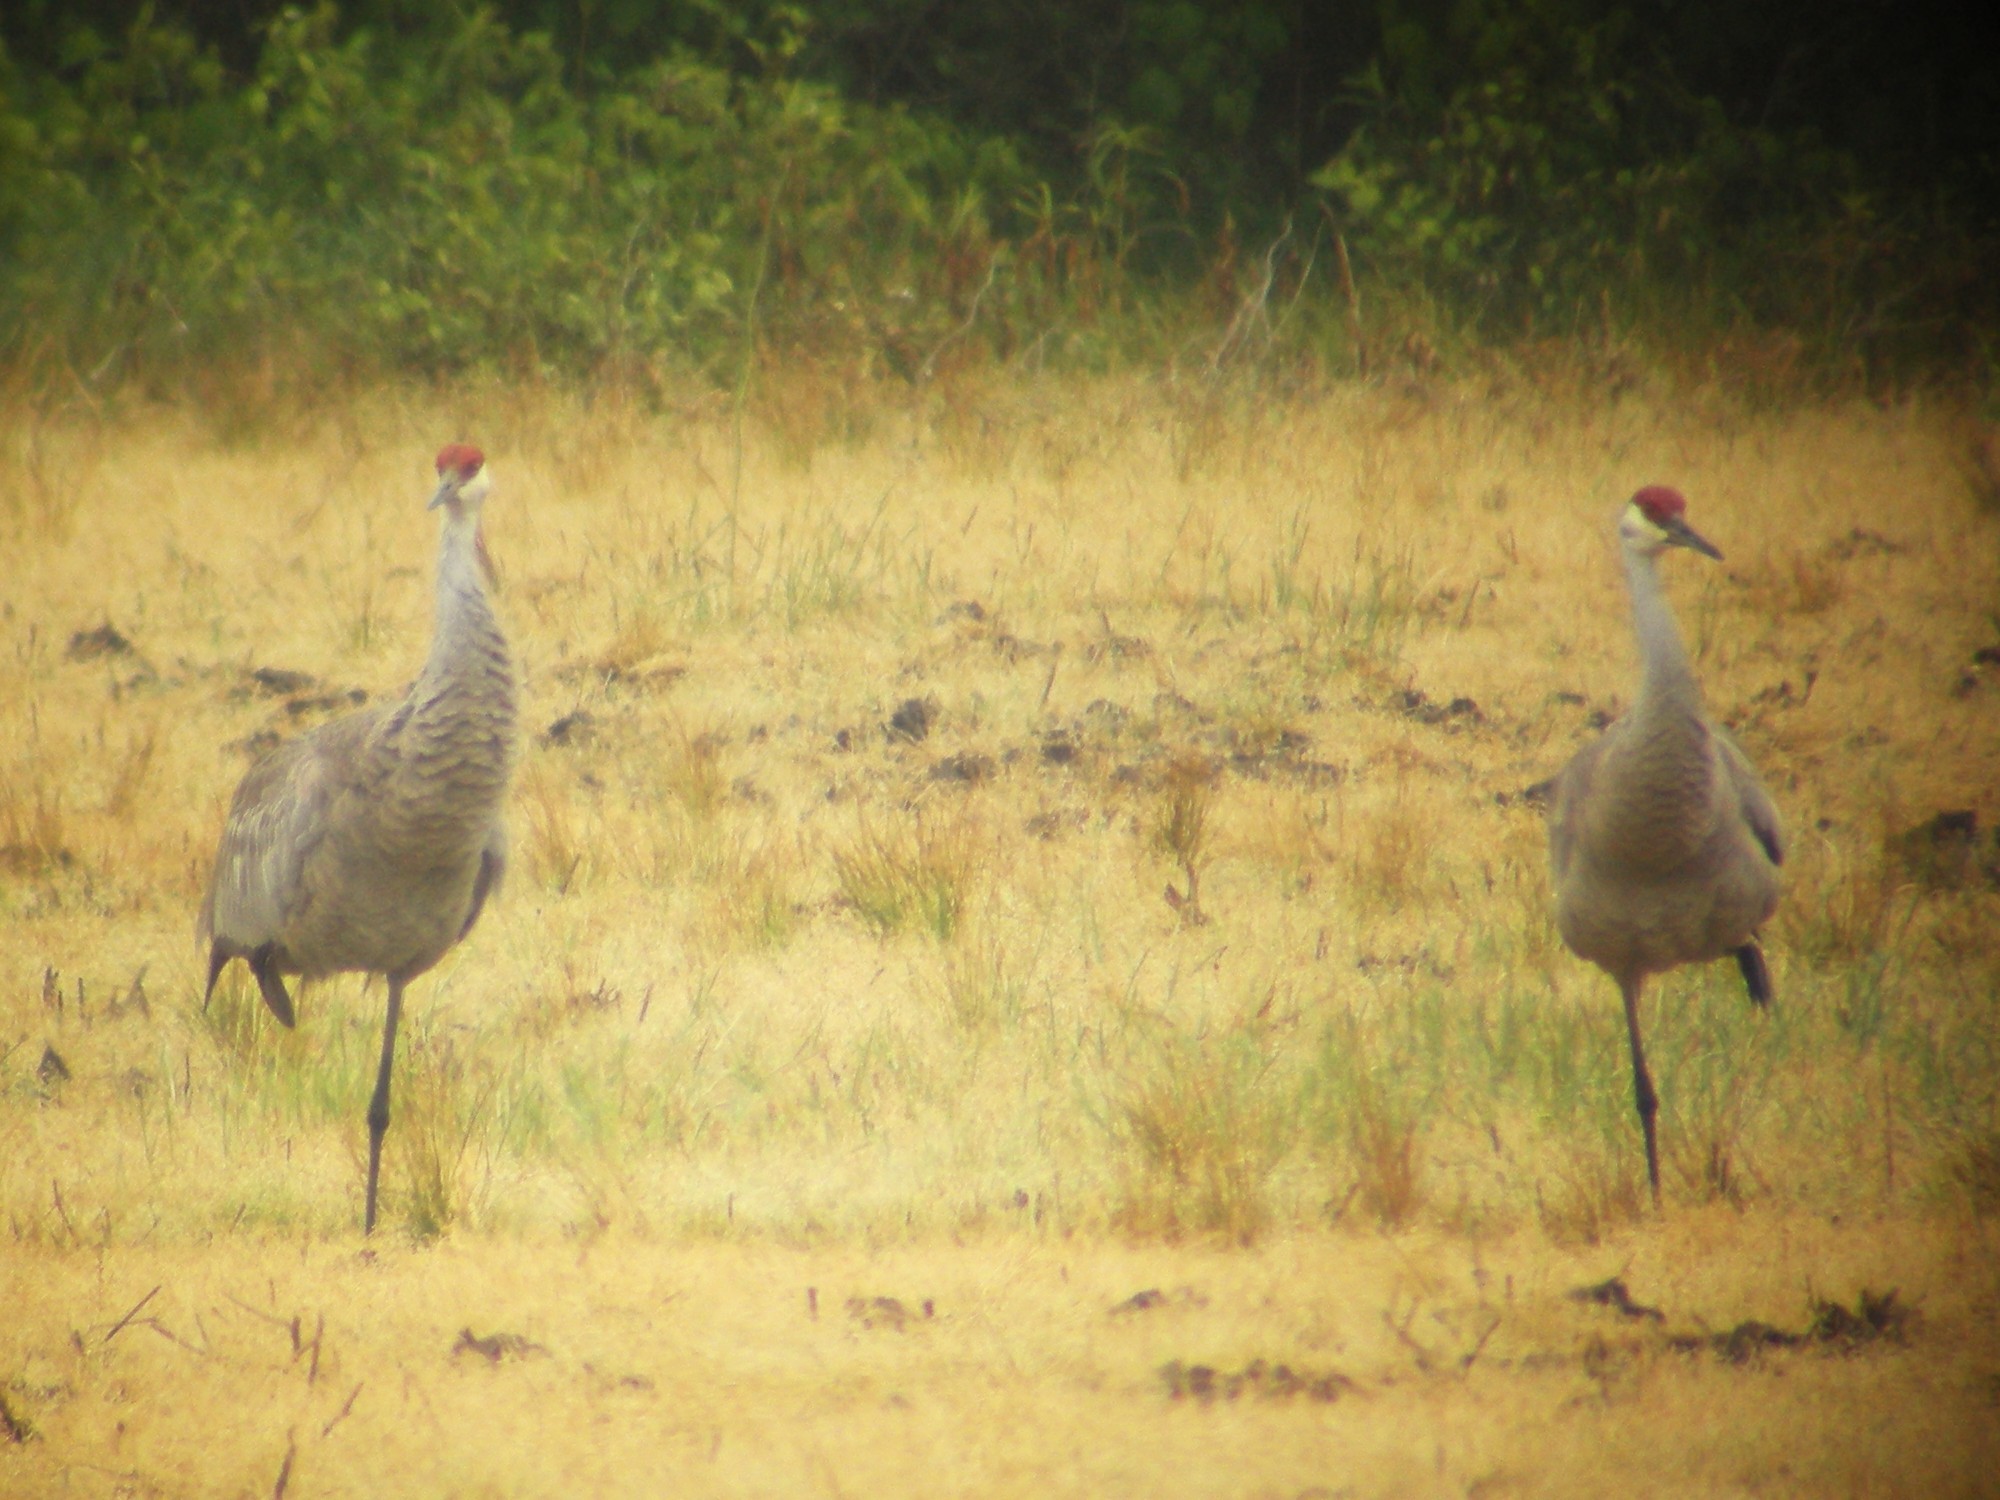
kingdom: Animalia
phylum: Chordata
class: Aves
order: Gruiformes
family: Gruidae
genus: Grus
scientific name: Grus canadensis
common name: Sandhill crane
